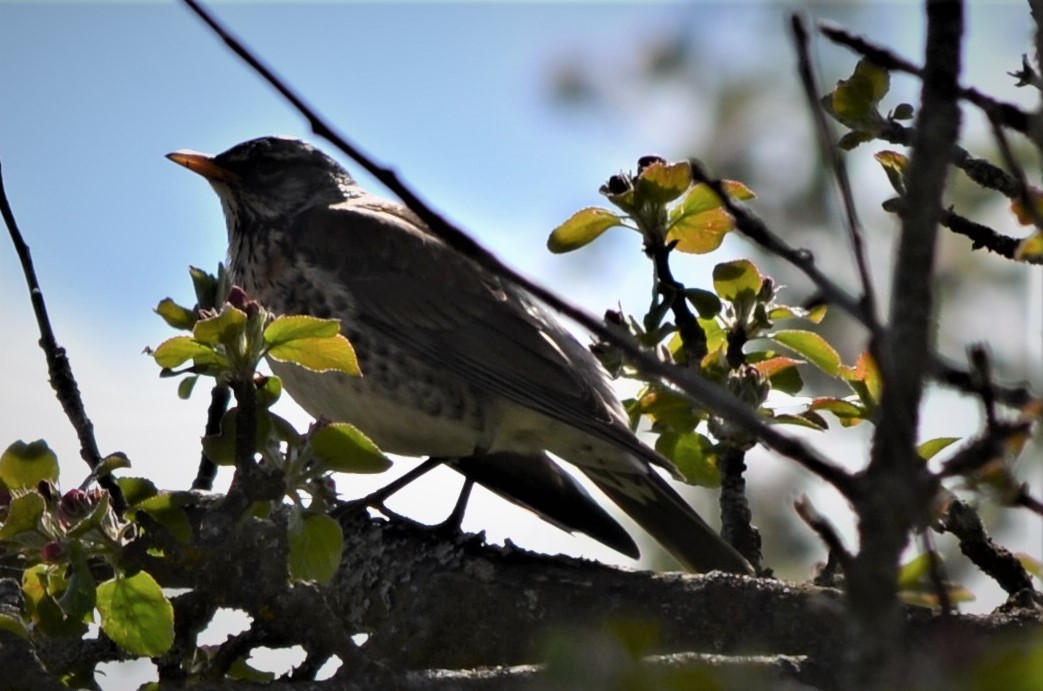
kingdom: Animalia
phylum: Chordata
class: Aves
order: Passeriformes
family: Turdidae
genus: Turdus
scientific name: Turdus pilaris
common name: Fieldfare
